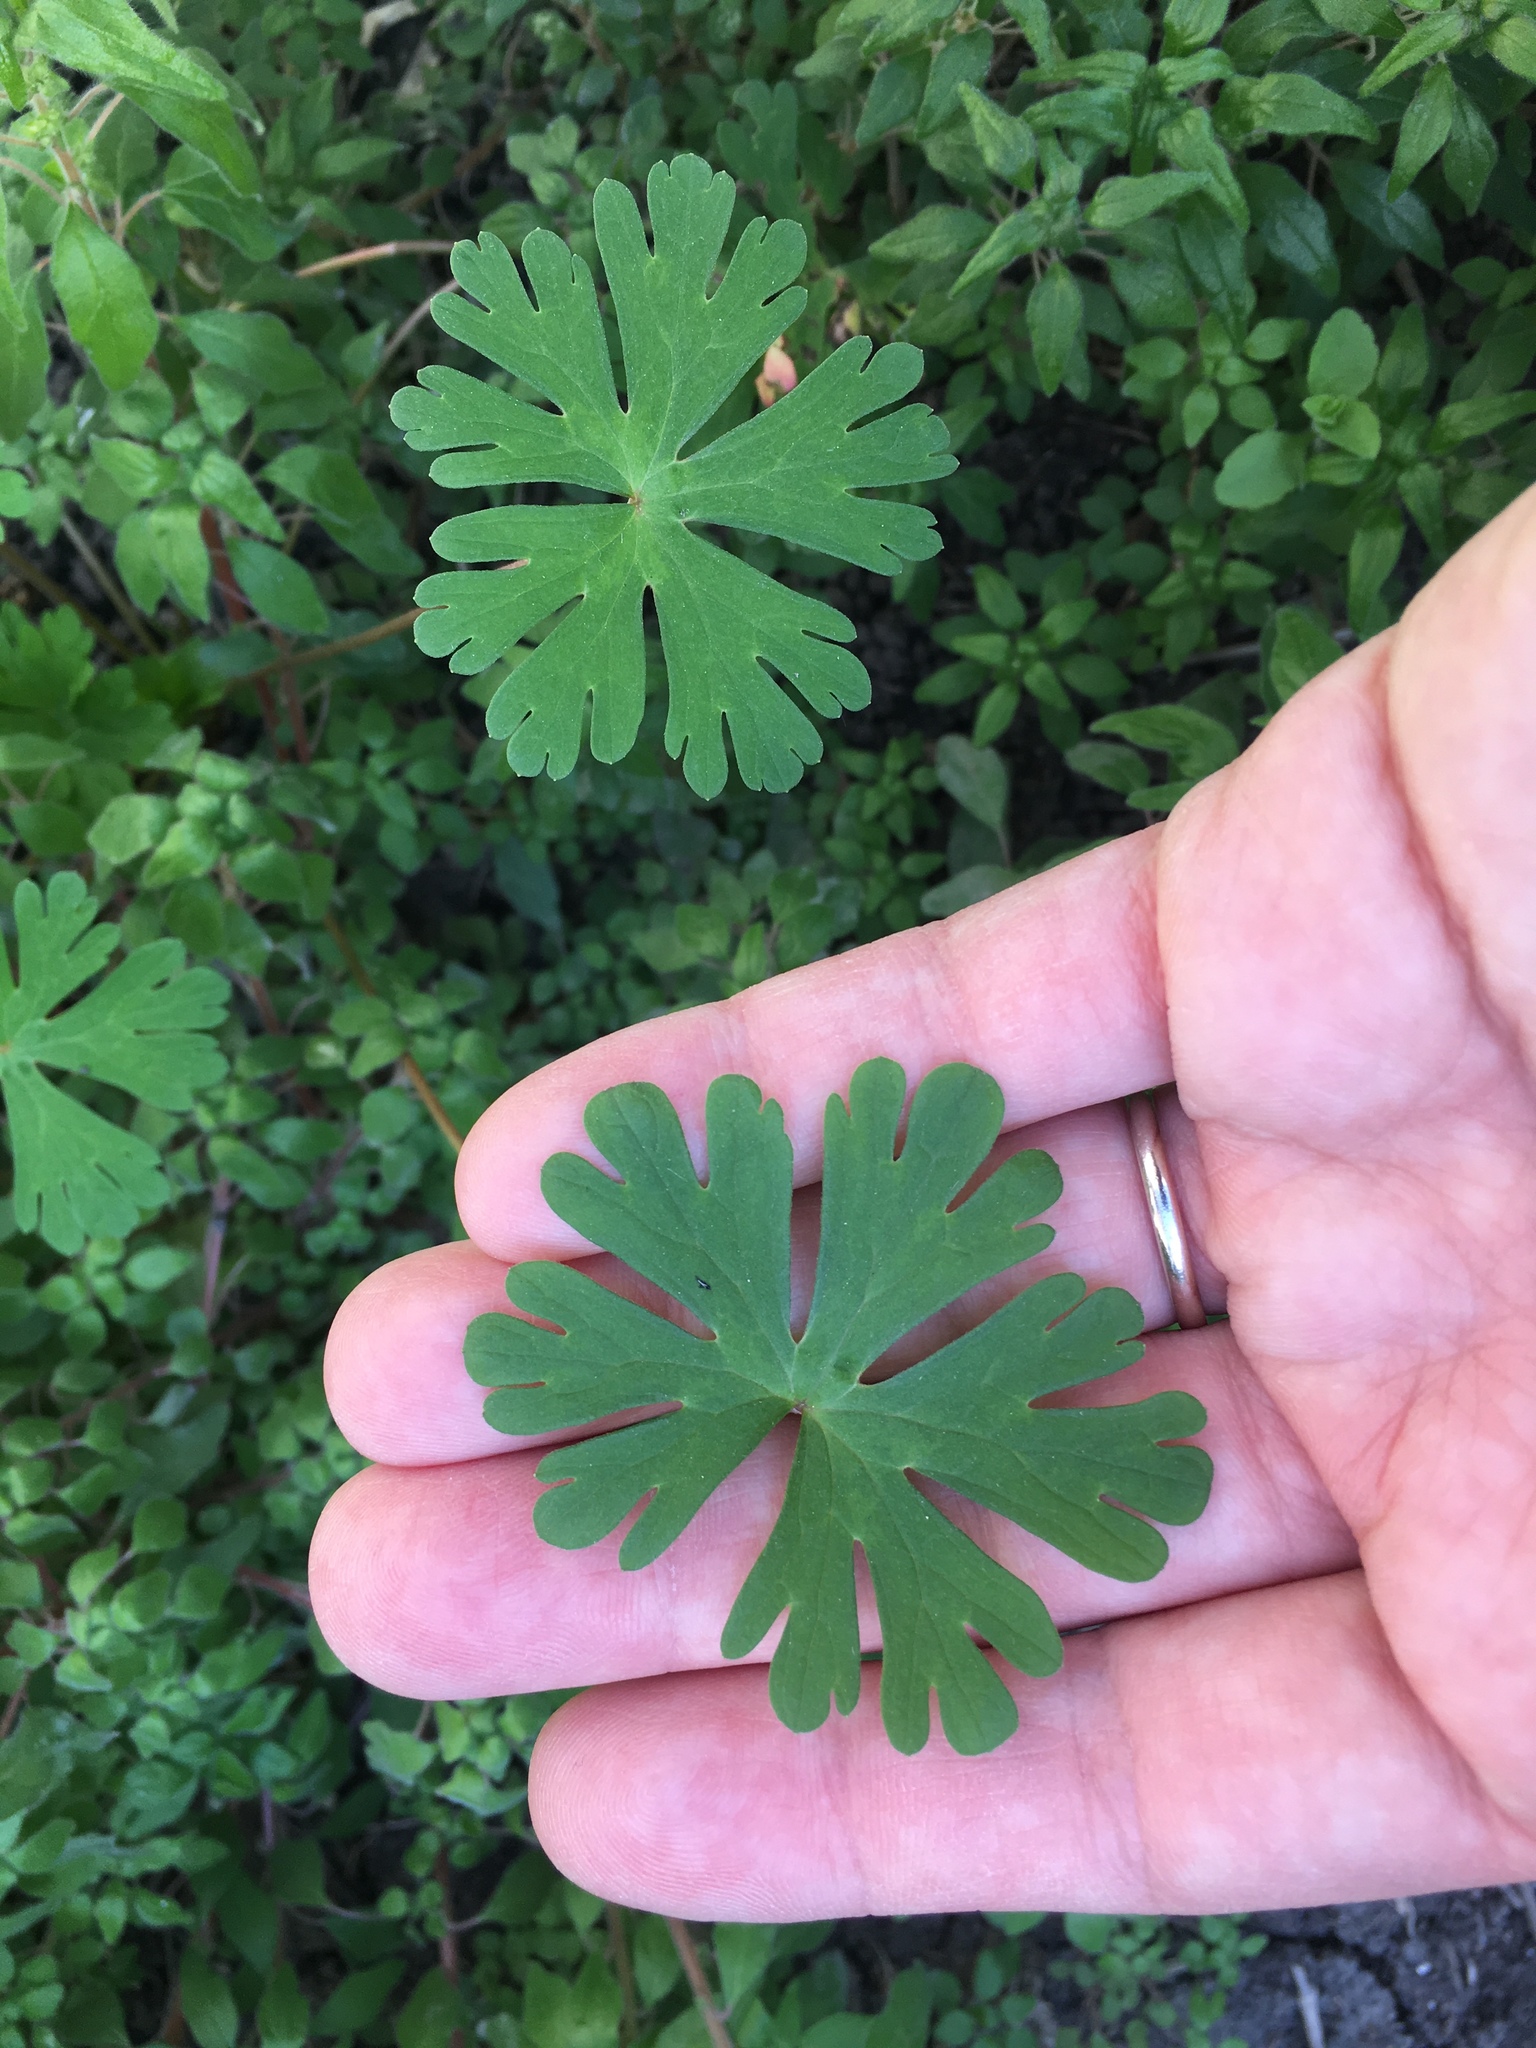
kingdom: Plantae
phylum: Tracheophyta
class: Magnoliopsida
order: Geraniales
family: Geraniaceae
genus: Geranium
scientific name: Geranium carolinianum
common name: Carolina crane's-bill
